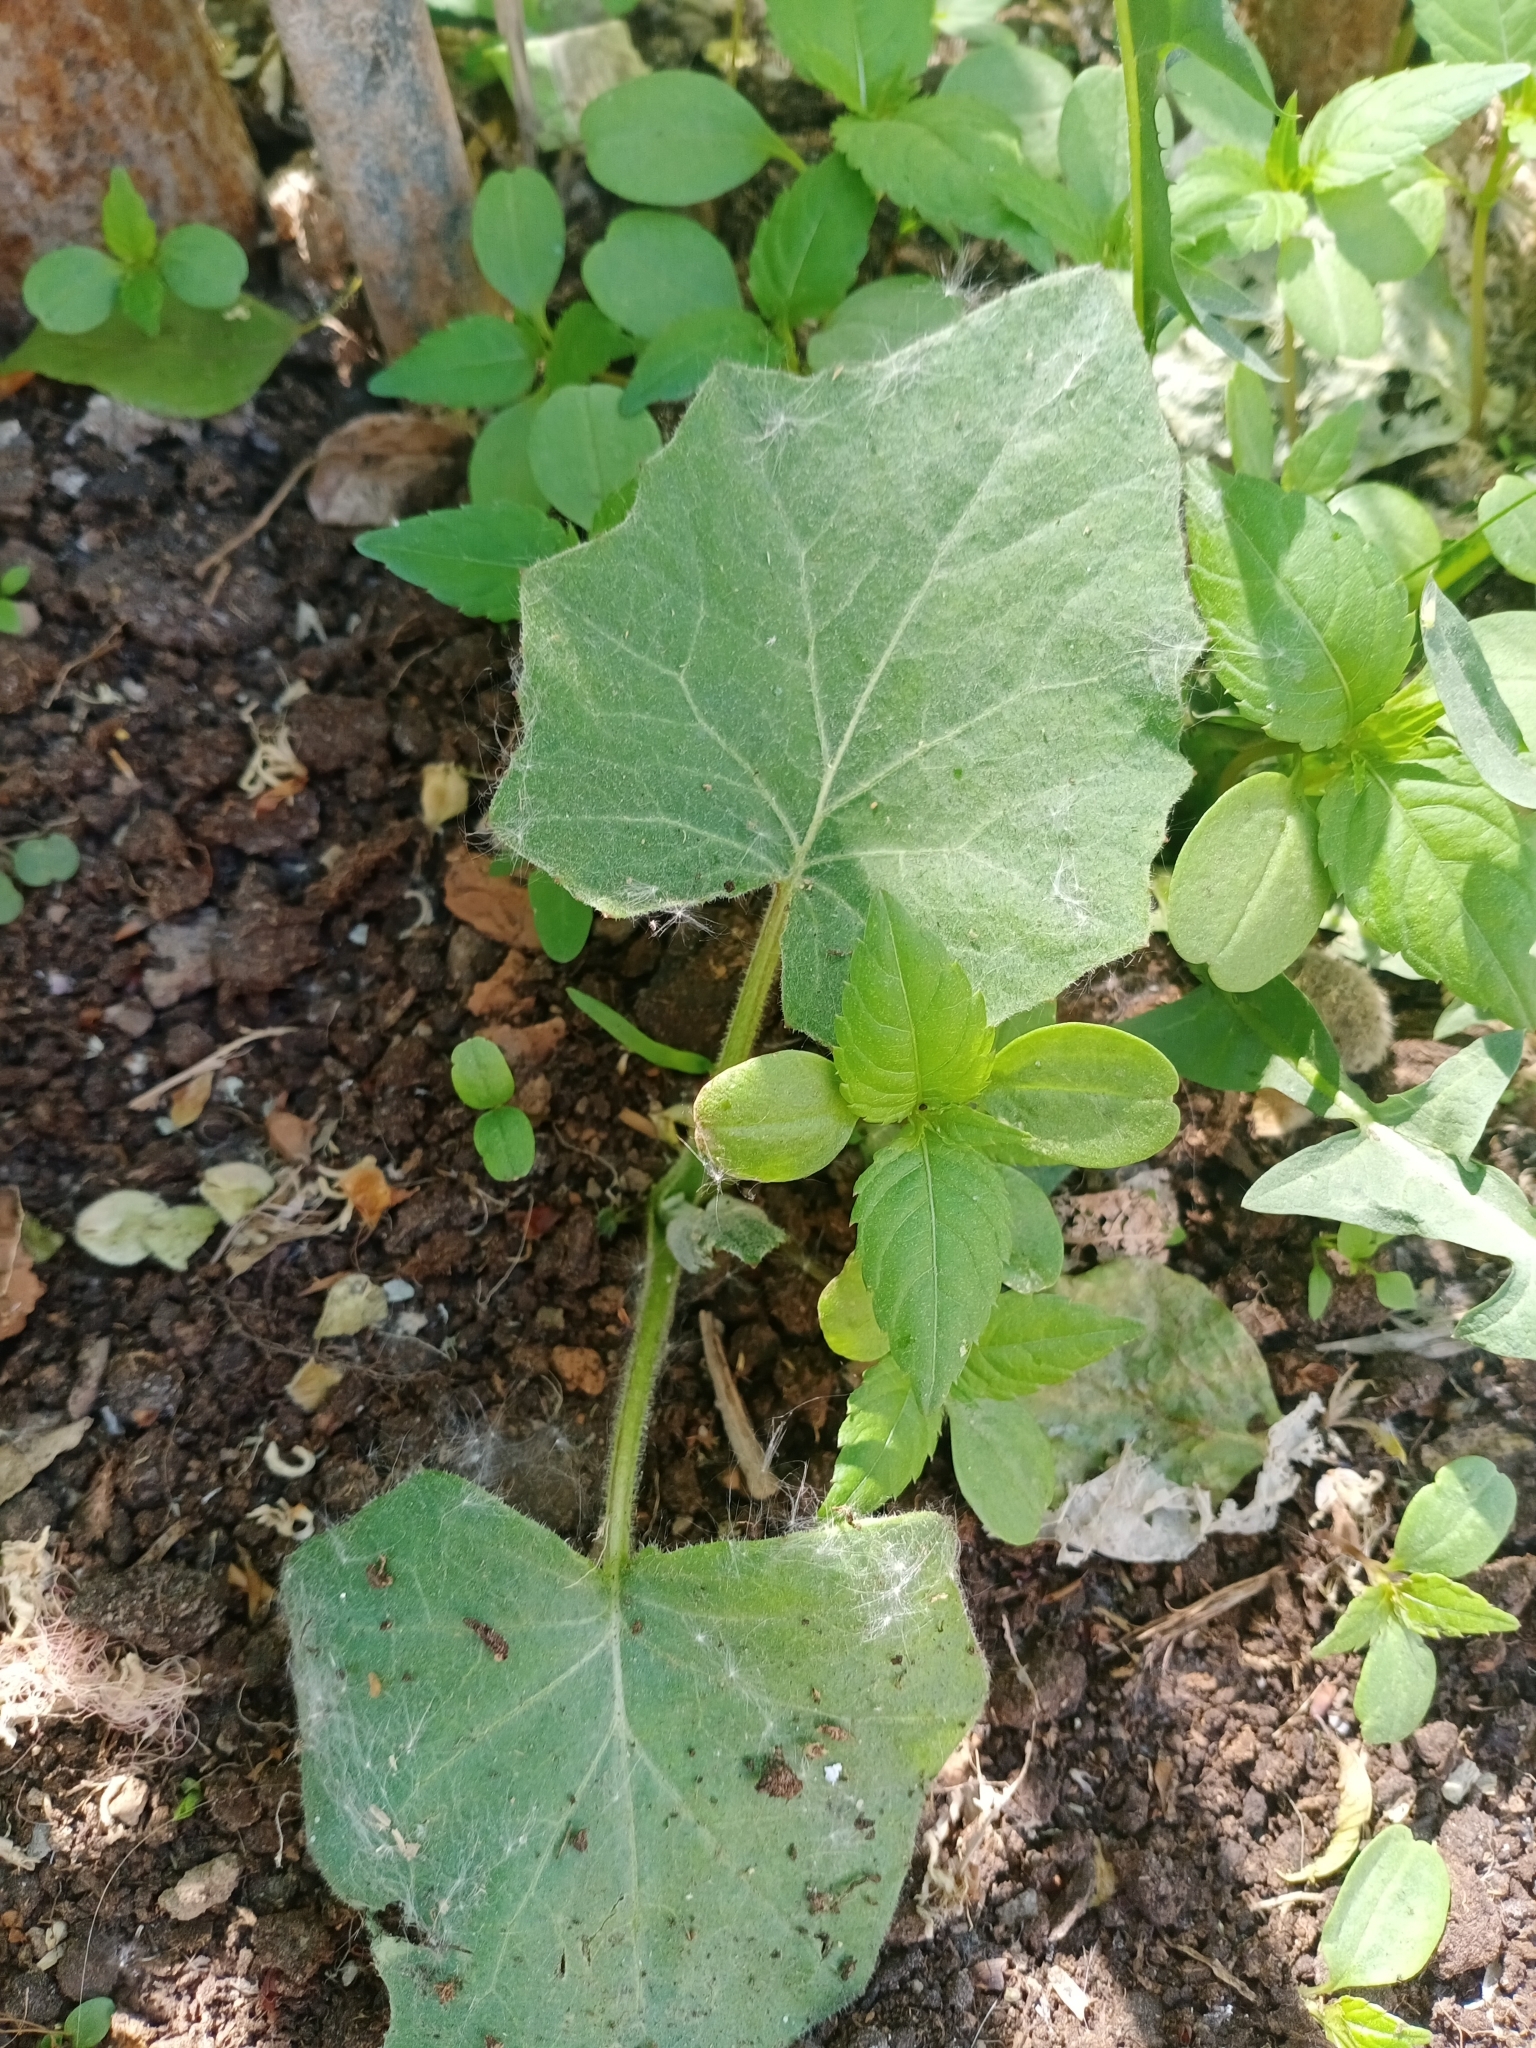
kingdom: Plantae
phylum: Tracheophyta
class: Magnoliopsida
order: Asterales
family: Asteraceae
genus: Tussilago
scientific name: Tussilago farfara
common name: Coltsfoot
